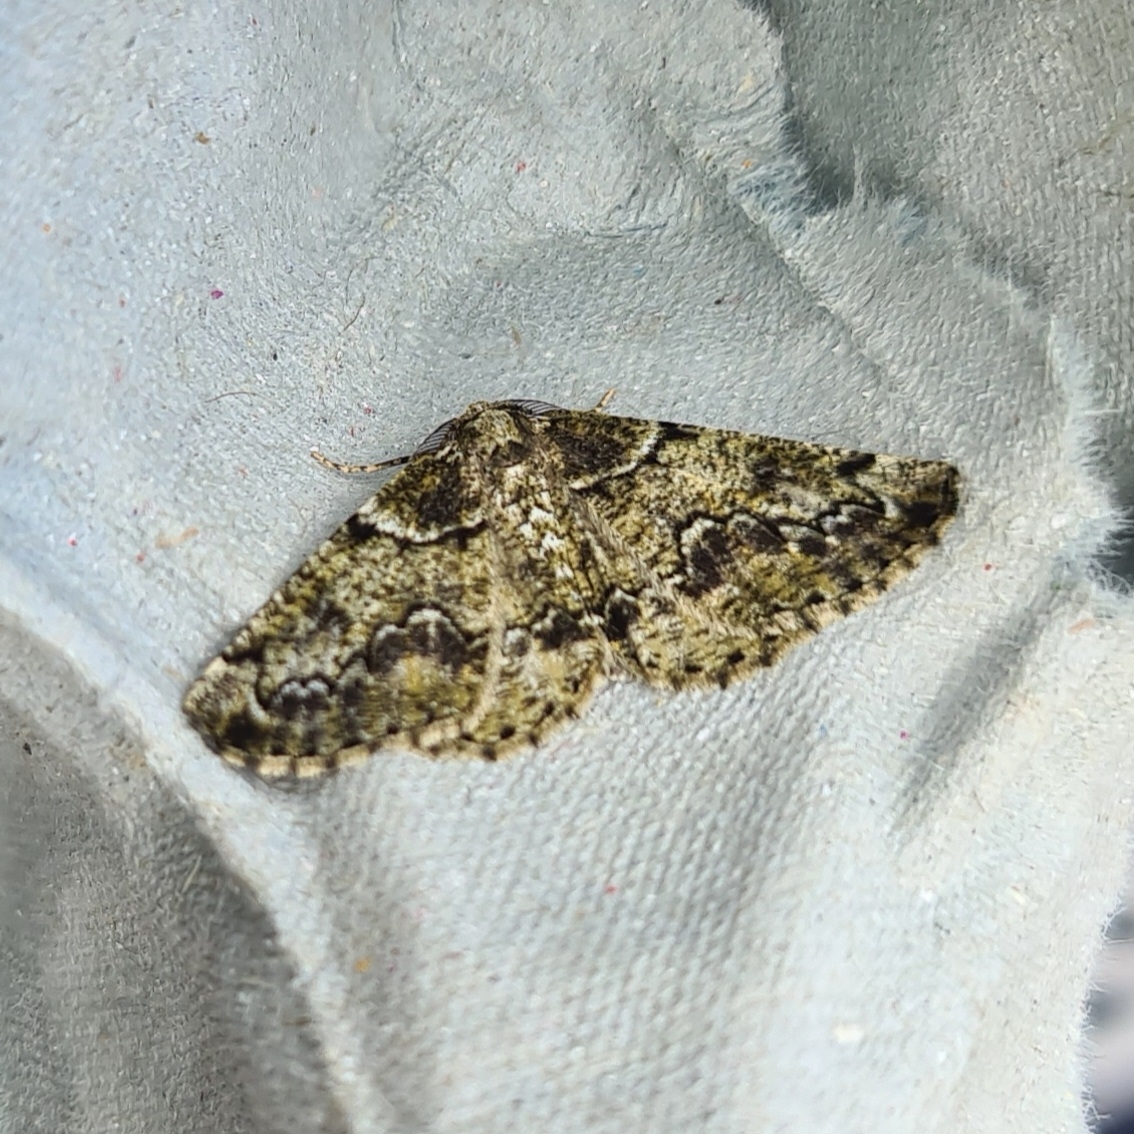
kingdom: Animalia
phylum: Arthropoda
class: Insecta
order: Lepidoptera
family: Geometridae
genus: Cleorodes
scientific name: Cleorodes lichenaria
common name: Brussels lace
